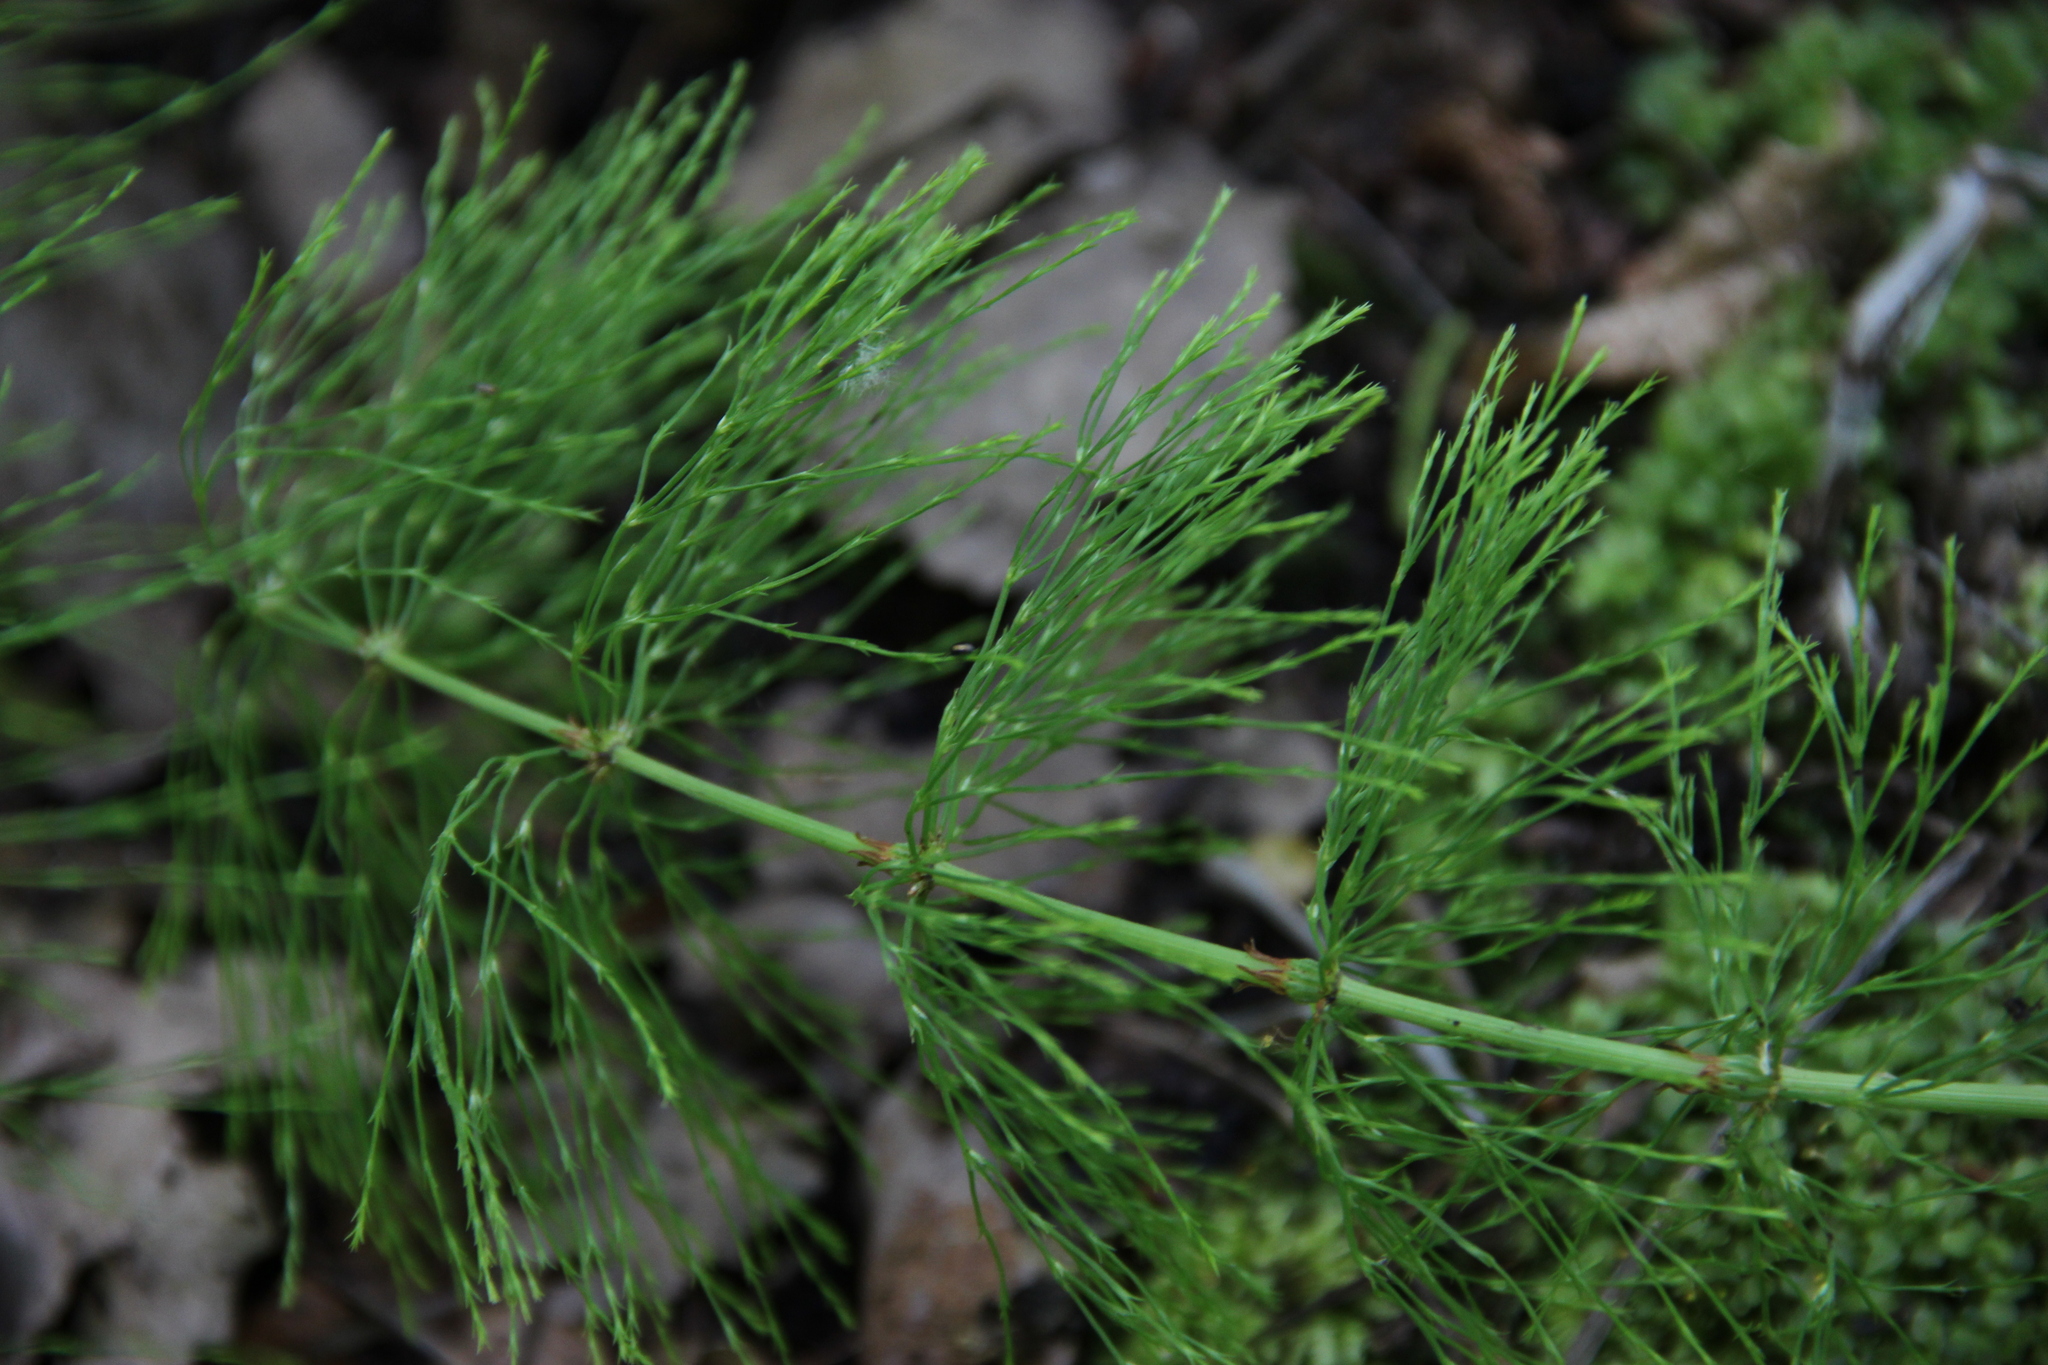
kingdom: Plantae
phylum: Tracheophyta
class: Polypodiopsida
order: Equisetales
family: Equisetaceae
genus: Equisetum
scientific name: Equisetum sylvaticum
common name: Wood horsetail
